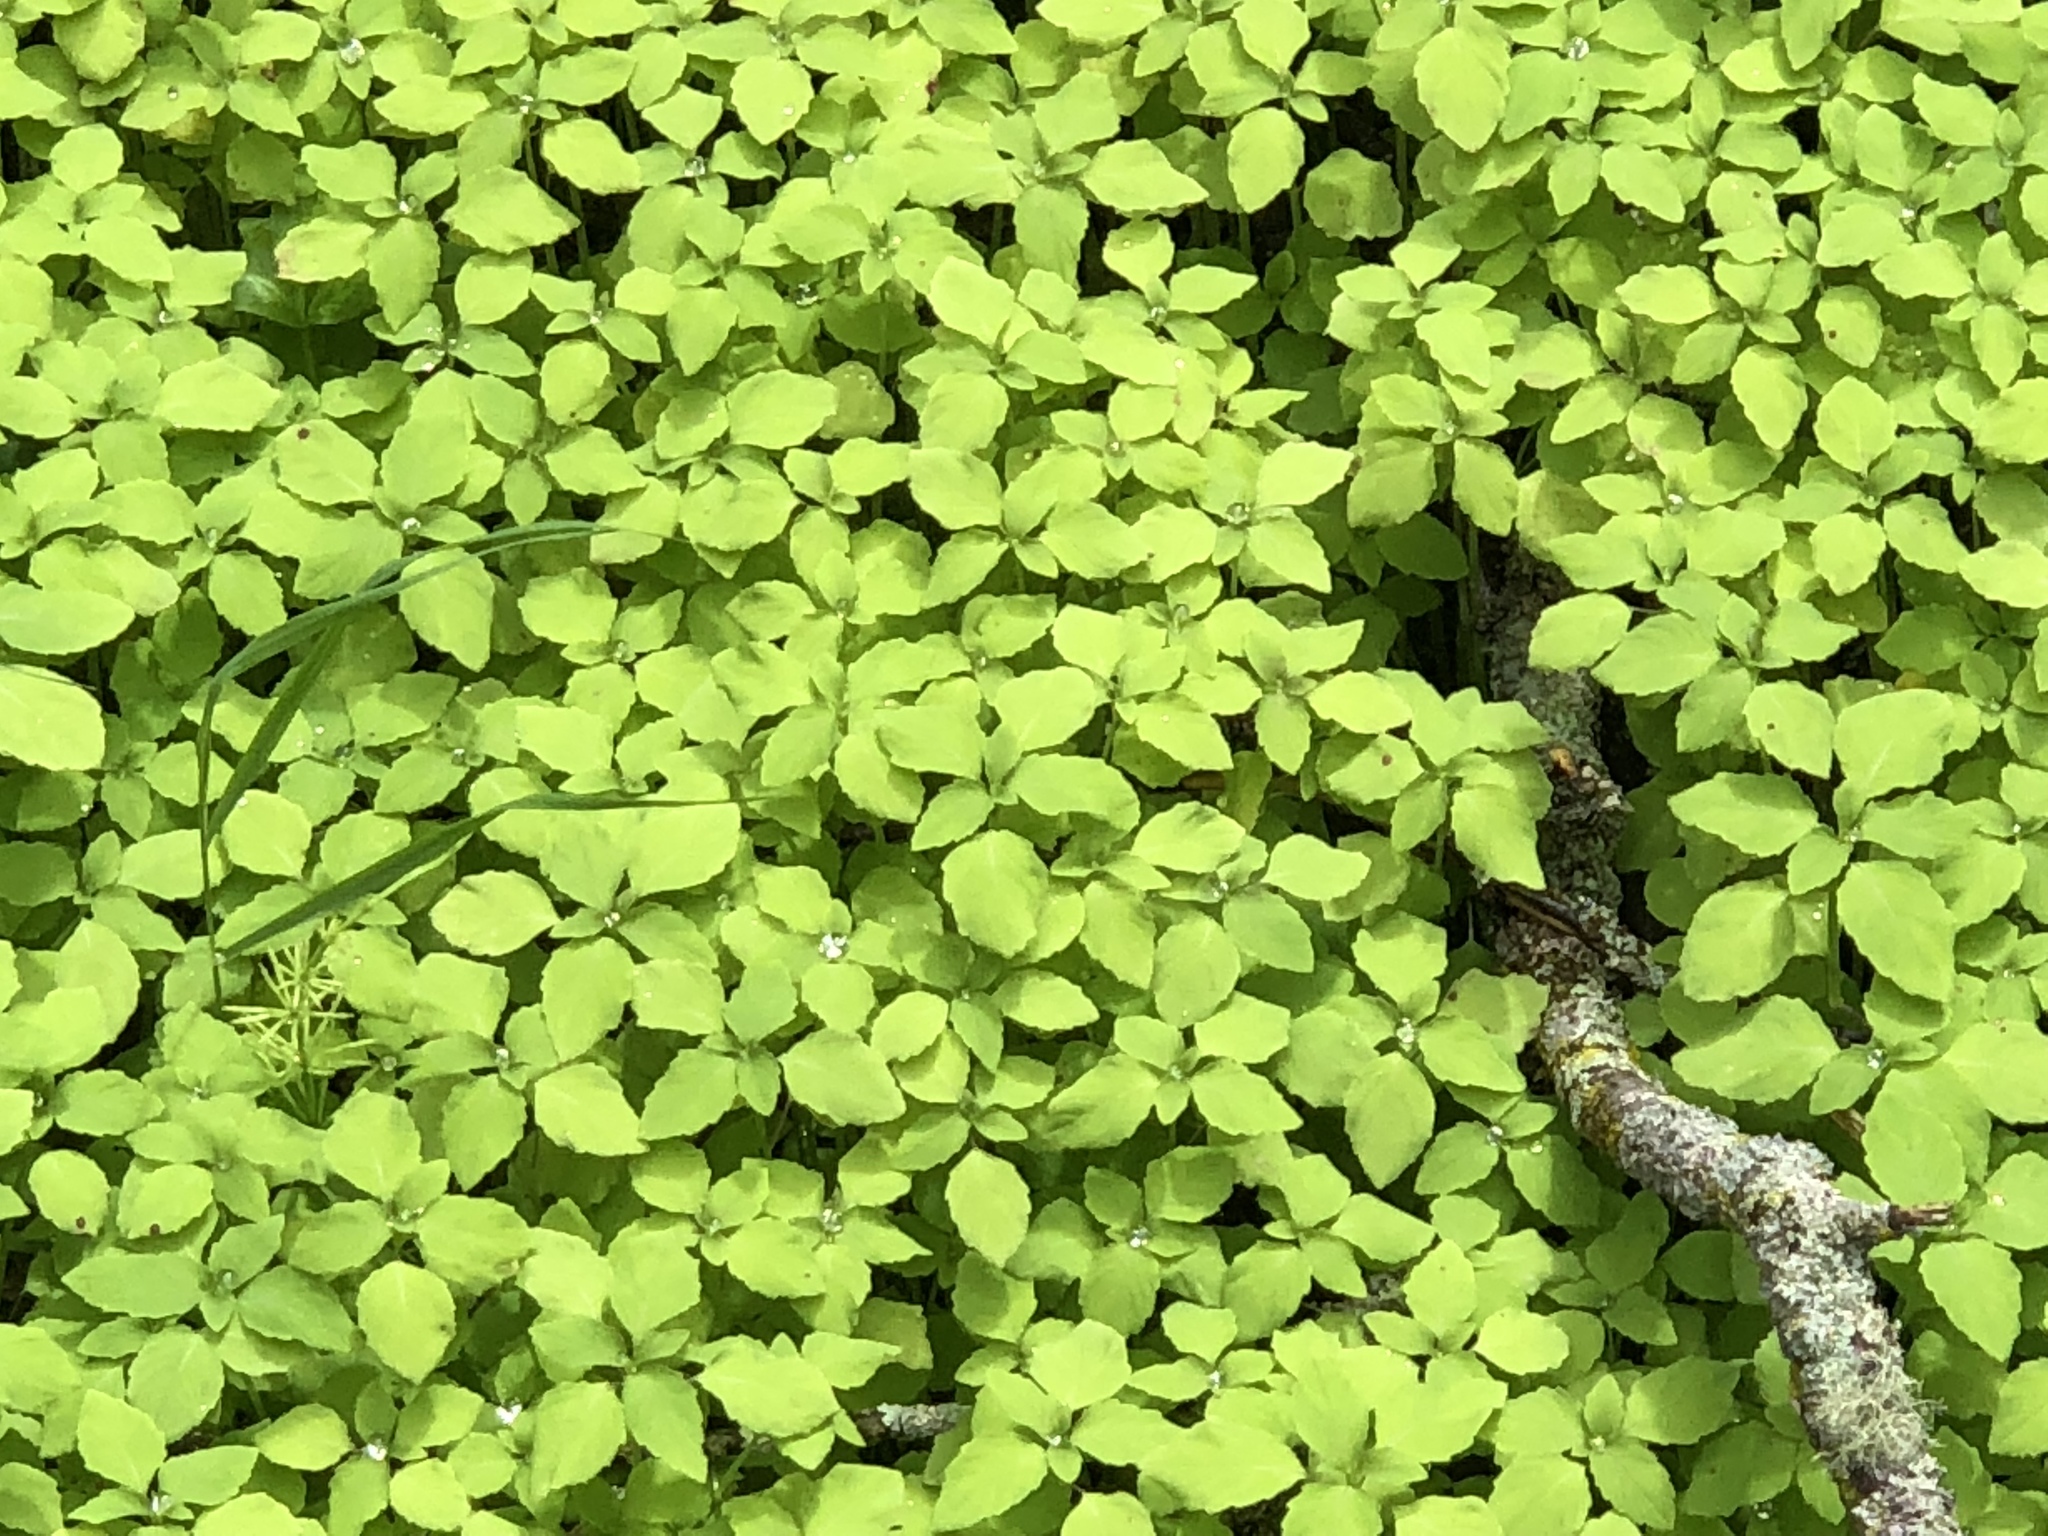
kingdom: Plantae
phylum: Tracheophyta
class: Magnoliopsida
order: Ericales
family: Balsaminaceae
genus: Impatiens
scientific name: Impatiens noli-tangere
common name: Touch-me-not balsam
